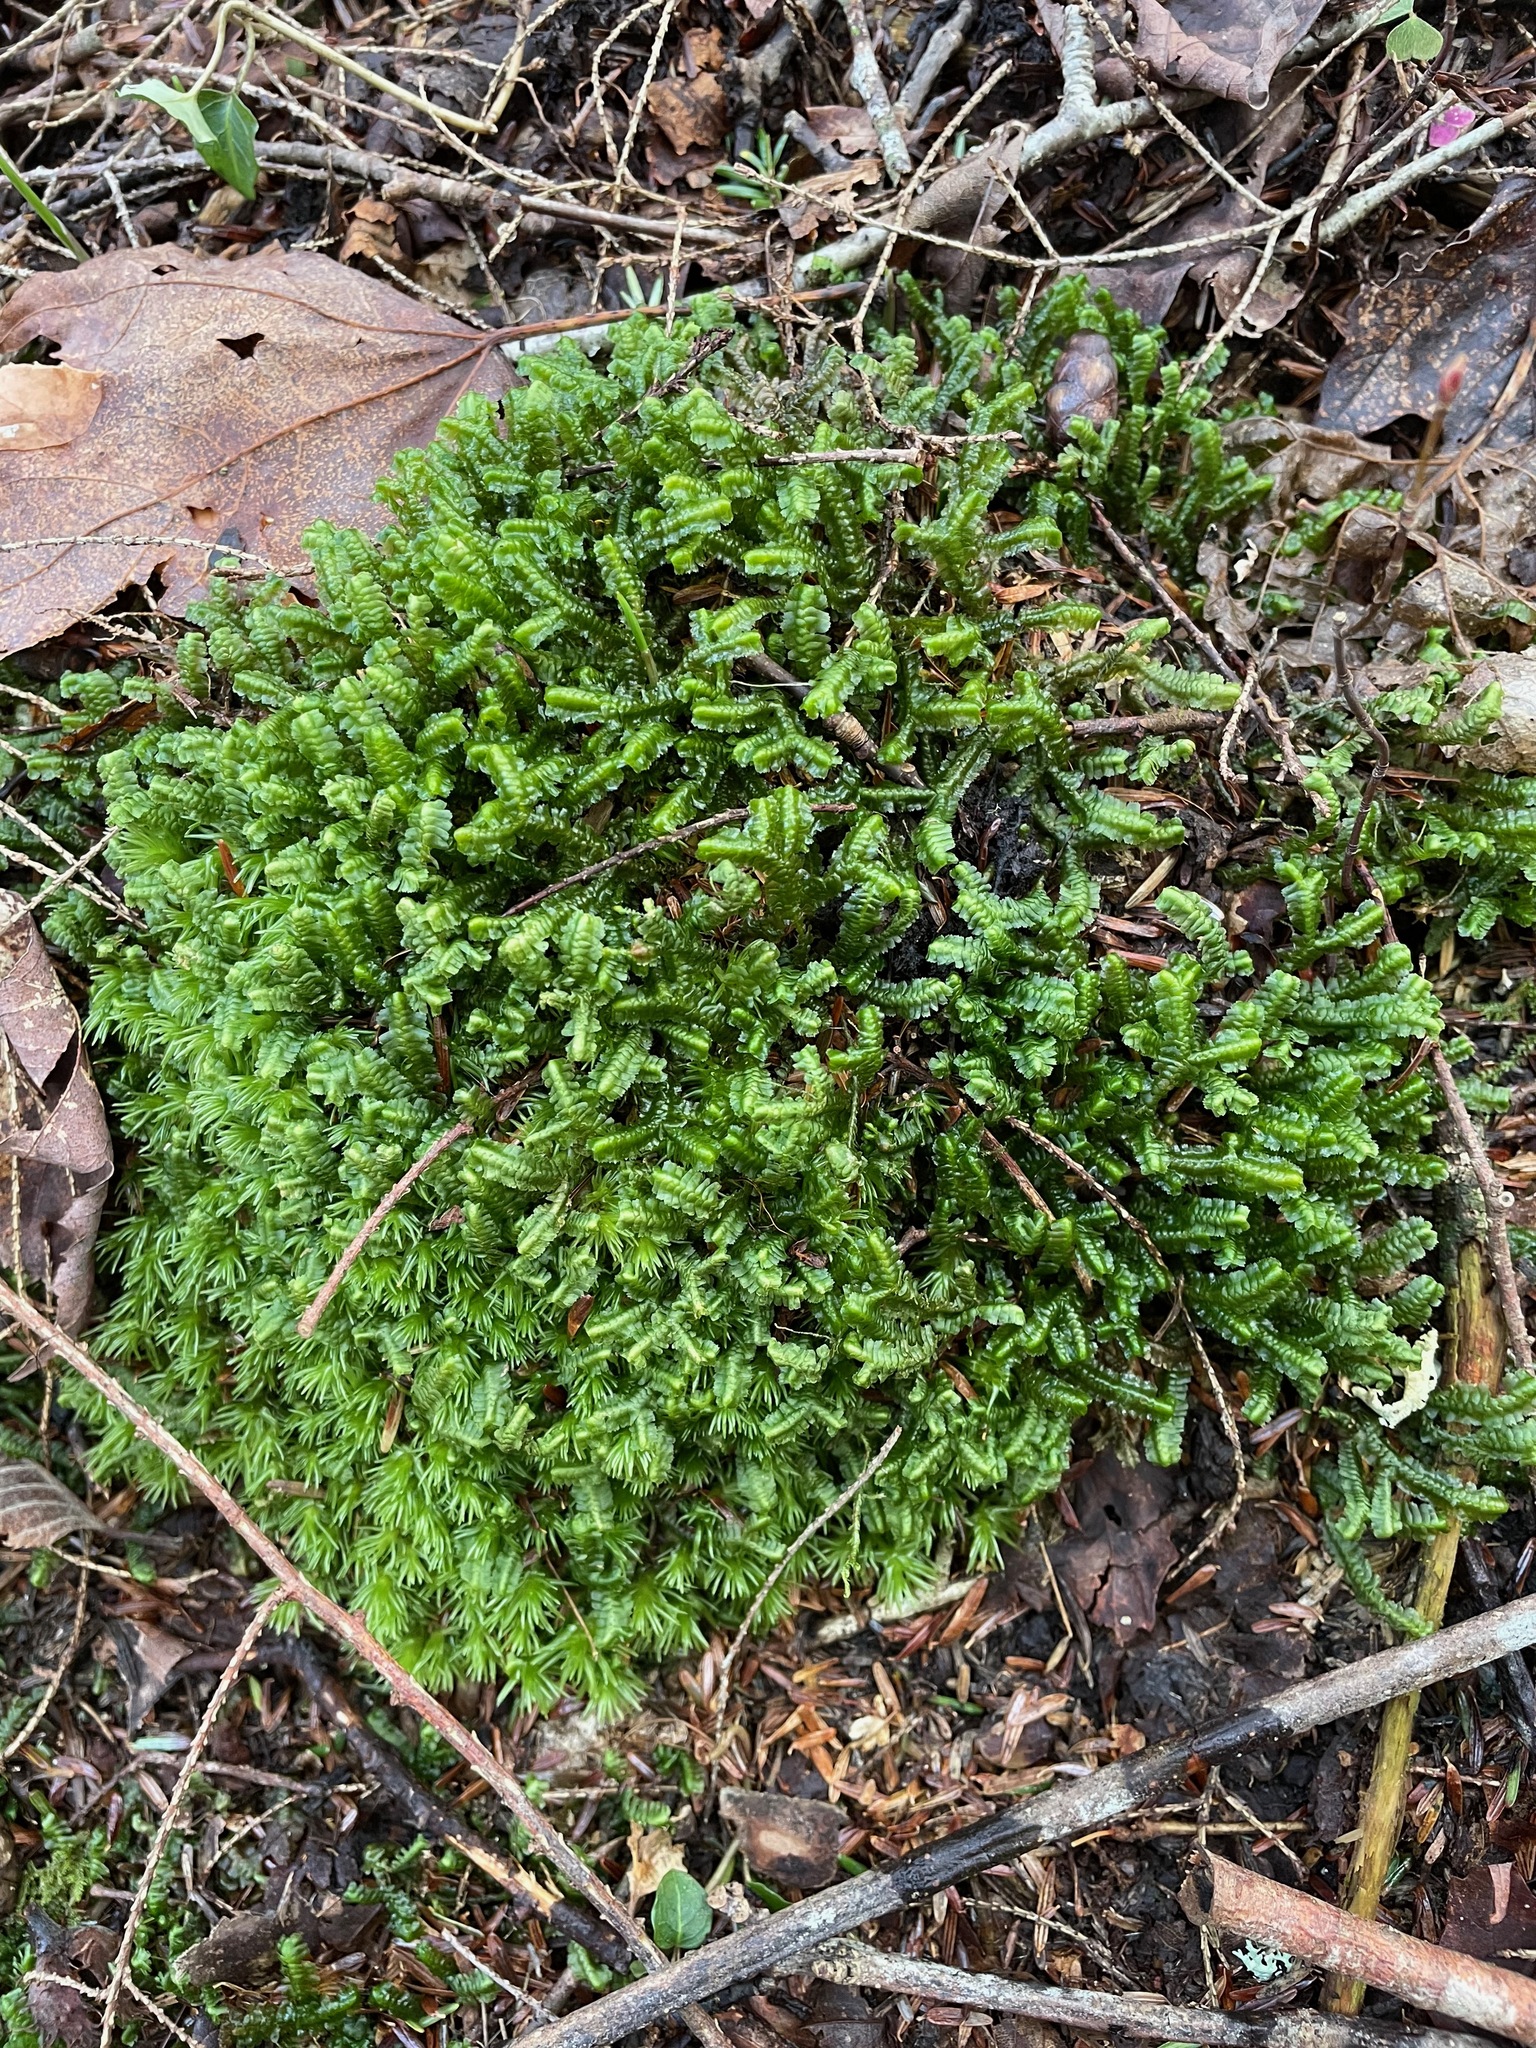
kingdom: Plantae
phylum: Marchantiophyta
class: Jungermanniopsida
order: Jungermanniales
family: Lepidoziaceae
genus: Bazzania
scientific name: Bazzania trilobata
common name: Three-lobed whipwort
